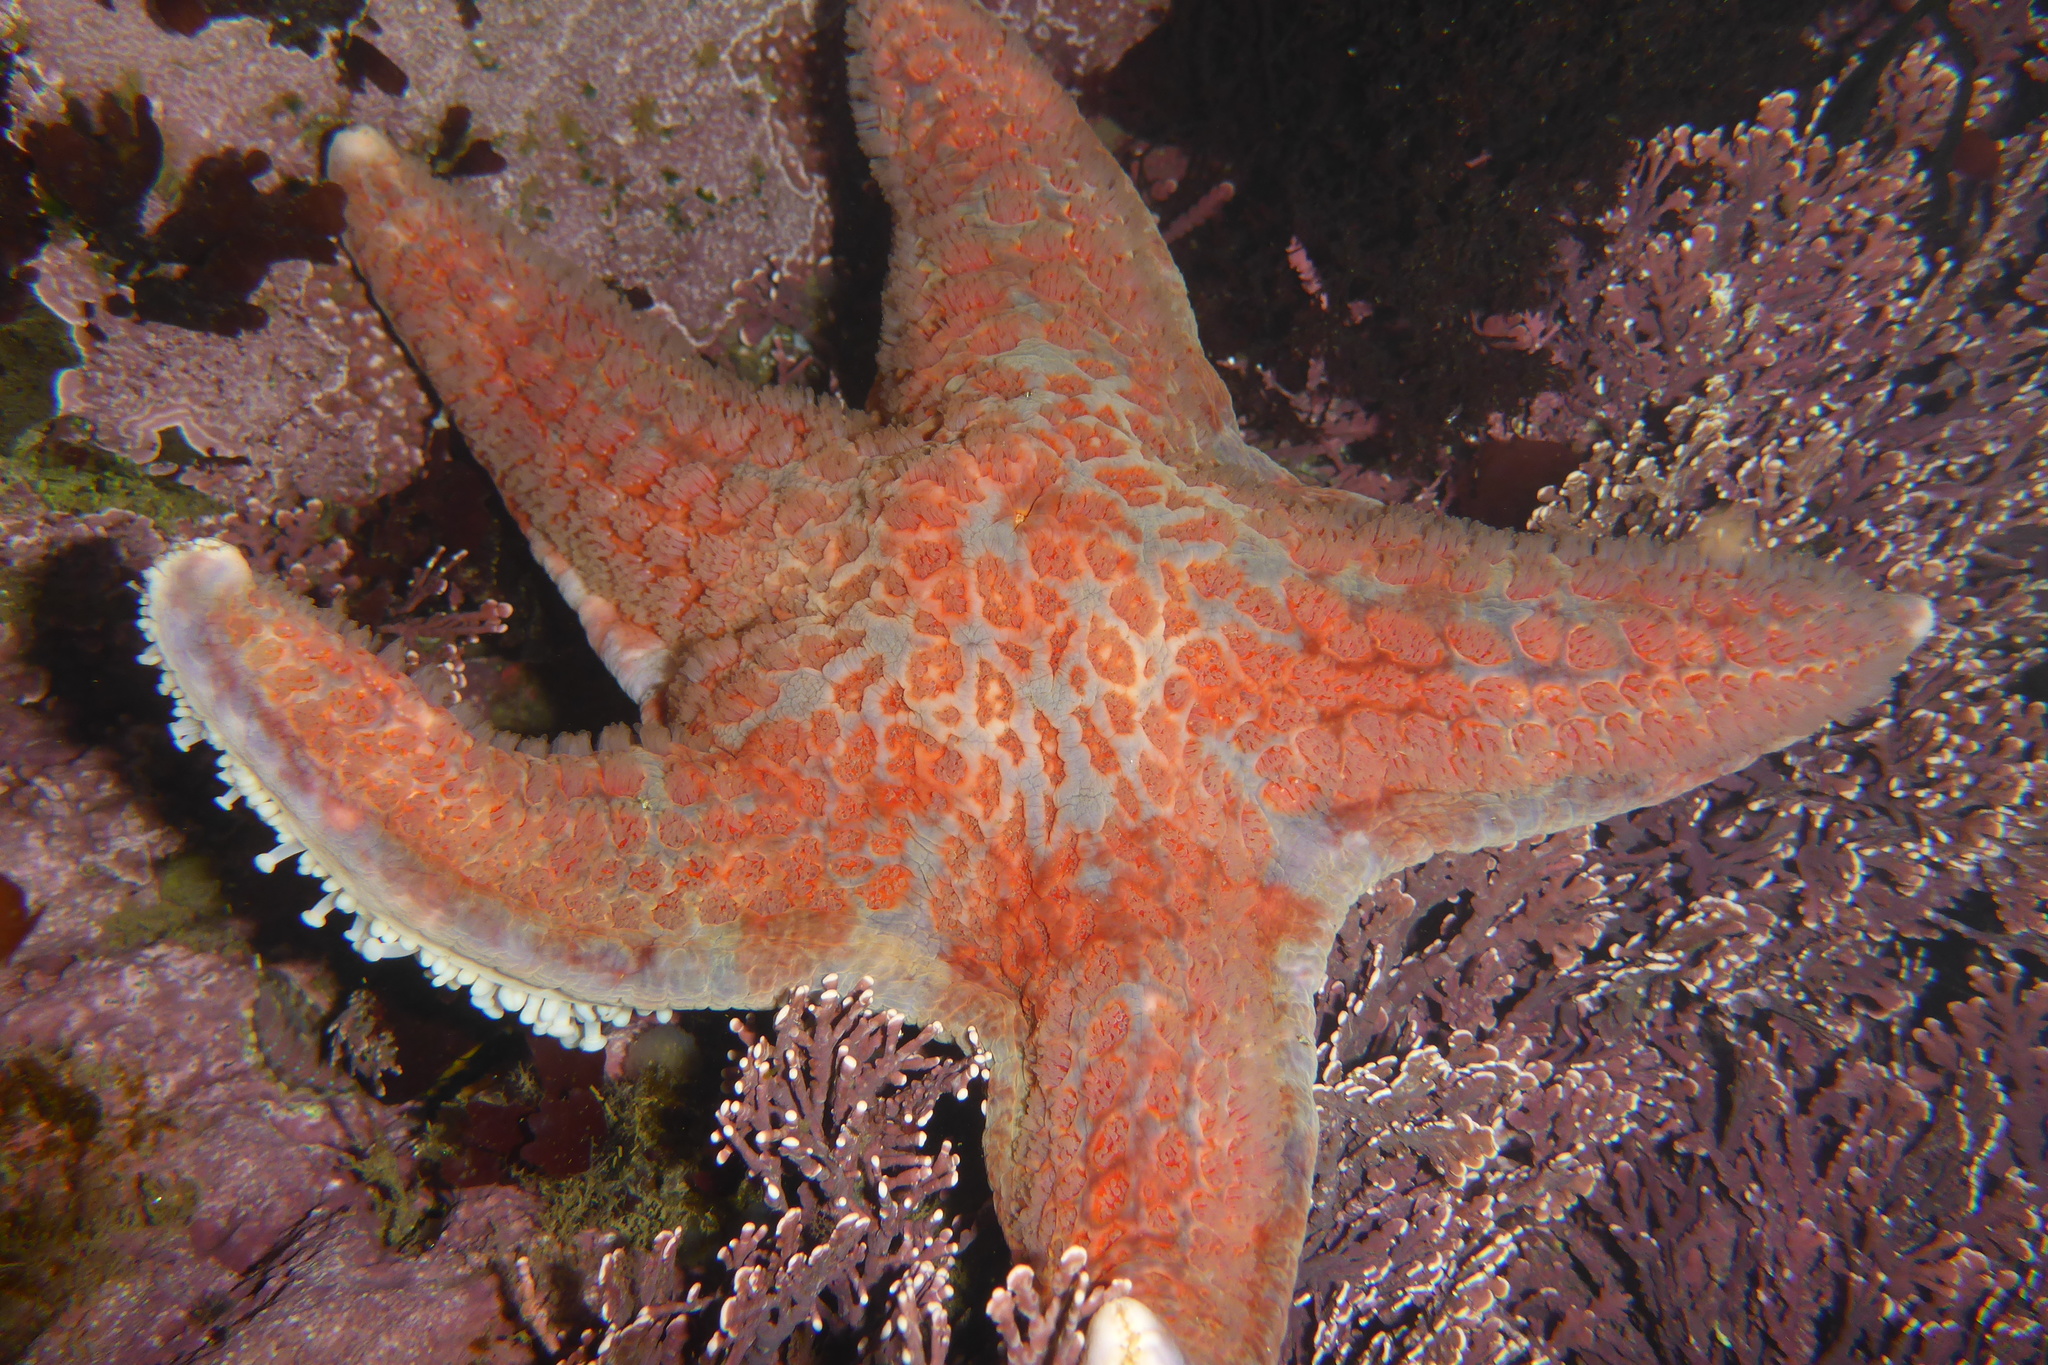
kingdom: Animalia
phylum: Echinodermata
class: Asteroidea
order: Valvatida
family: Asteropseidae
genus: Dermasterias
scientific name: Dermasterias imbricata
